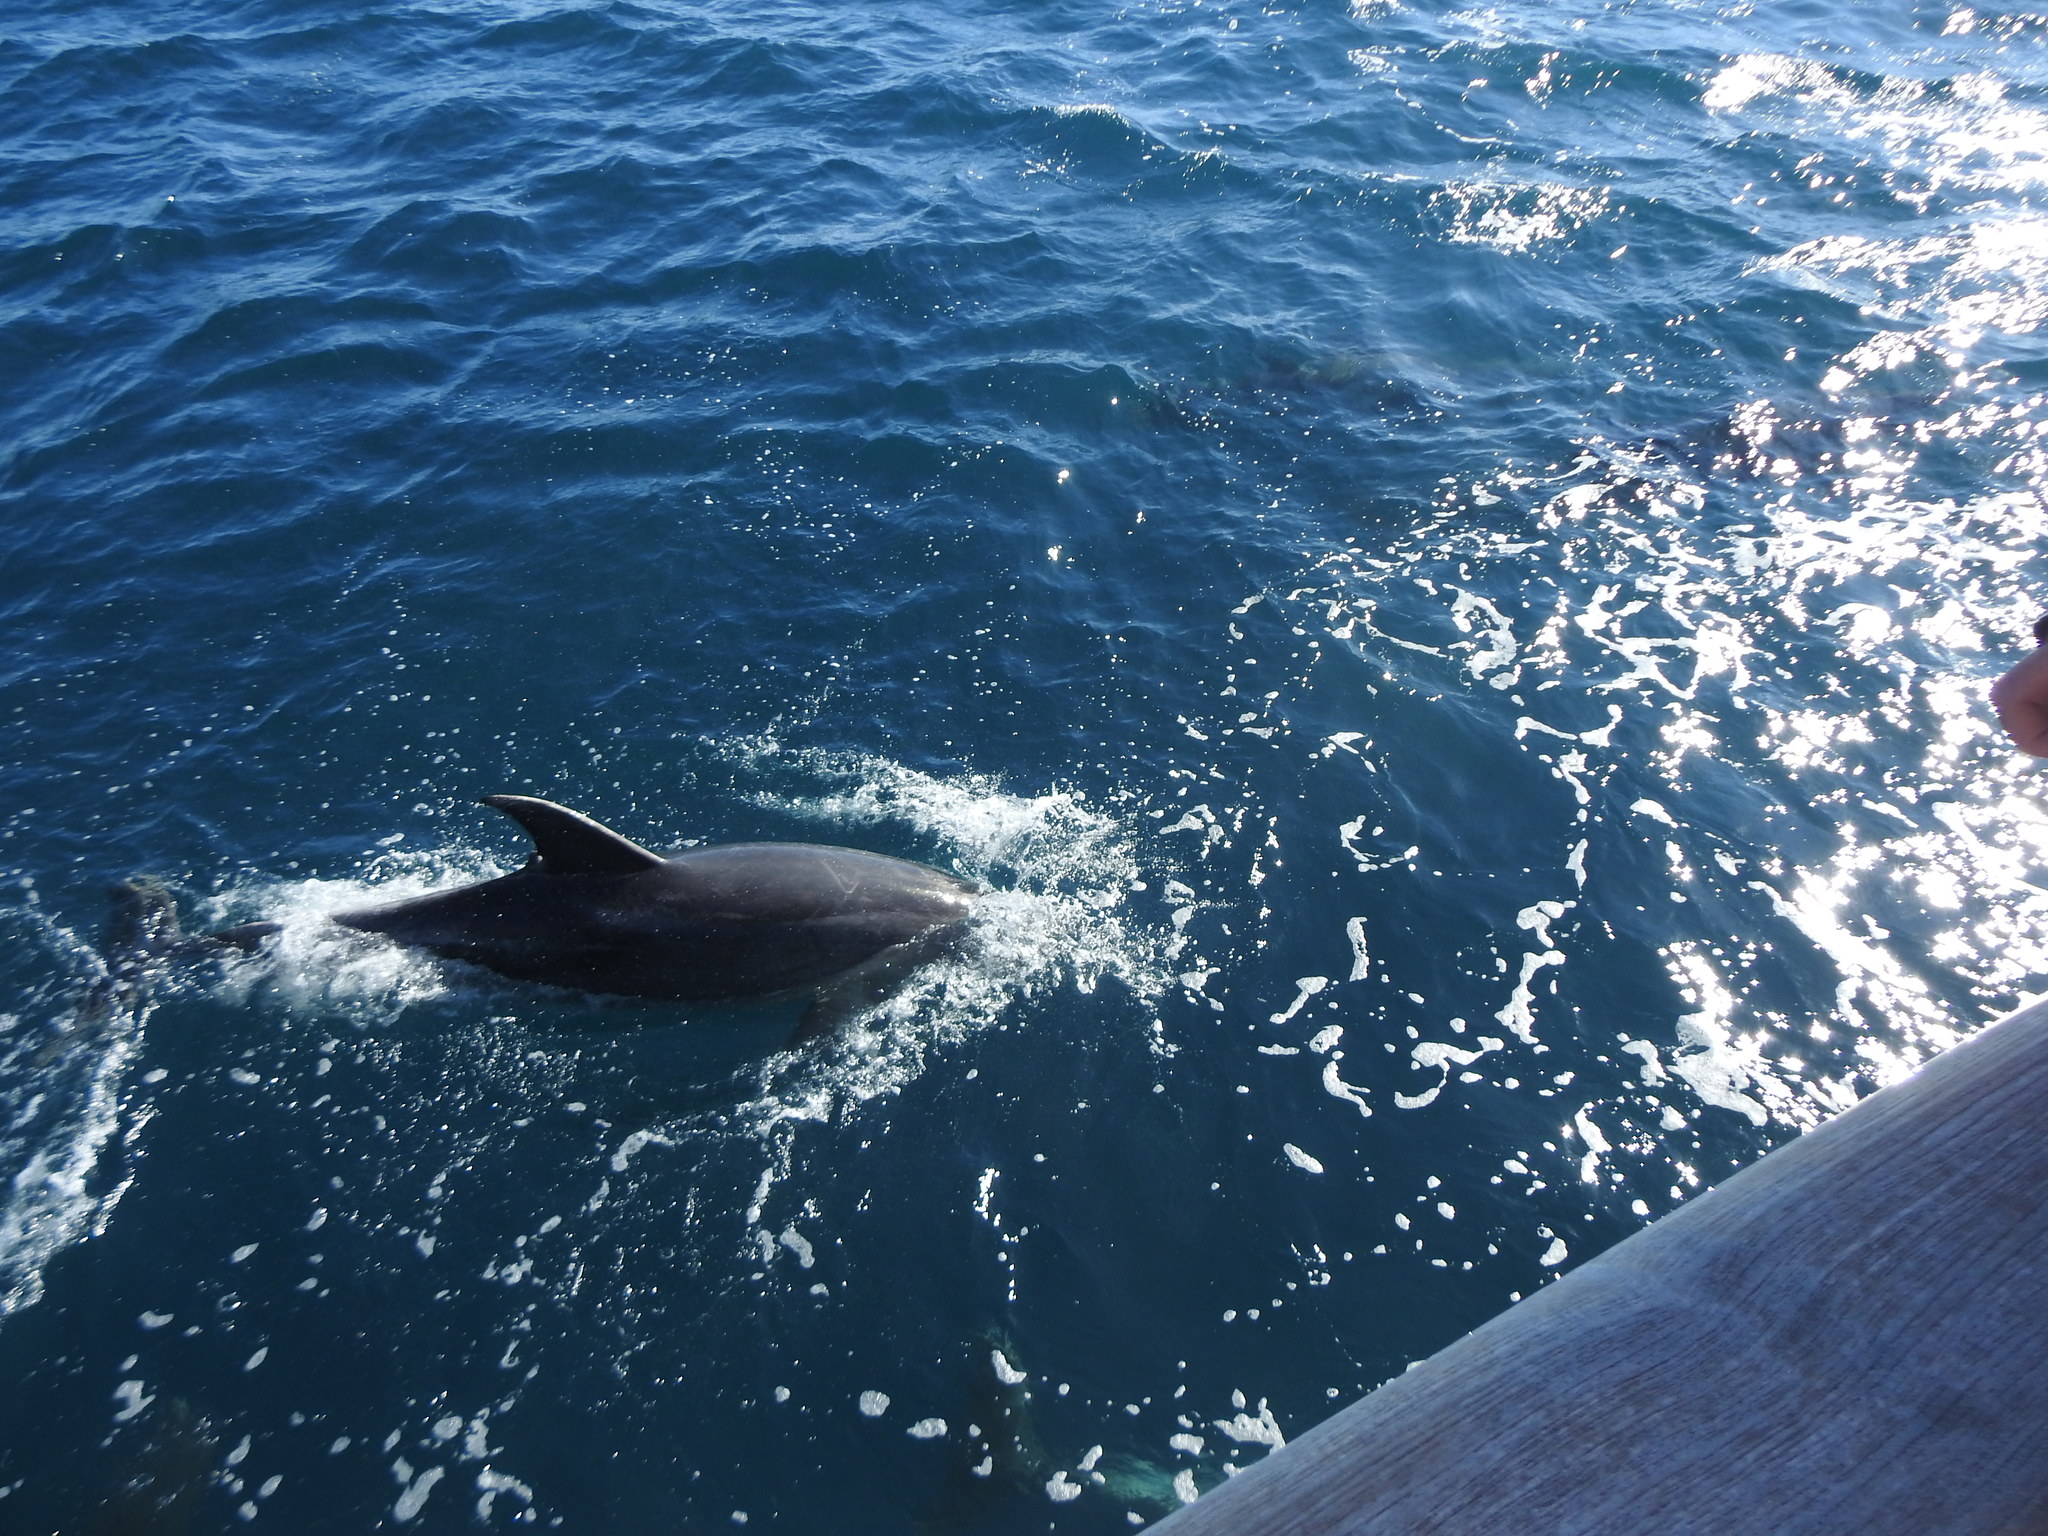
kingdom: Animalia
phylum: Chordata
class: Mammalia
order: Cetacea
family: Delphinidae
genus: Tursiops
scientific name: Tursiops truncatus
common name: Bottlenose dolphin
